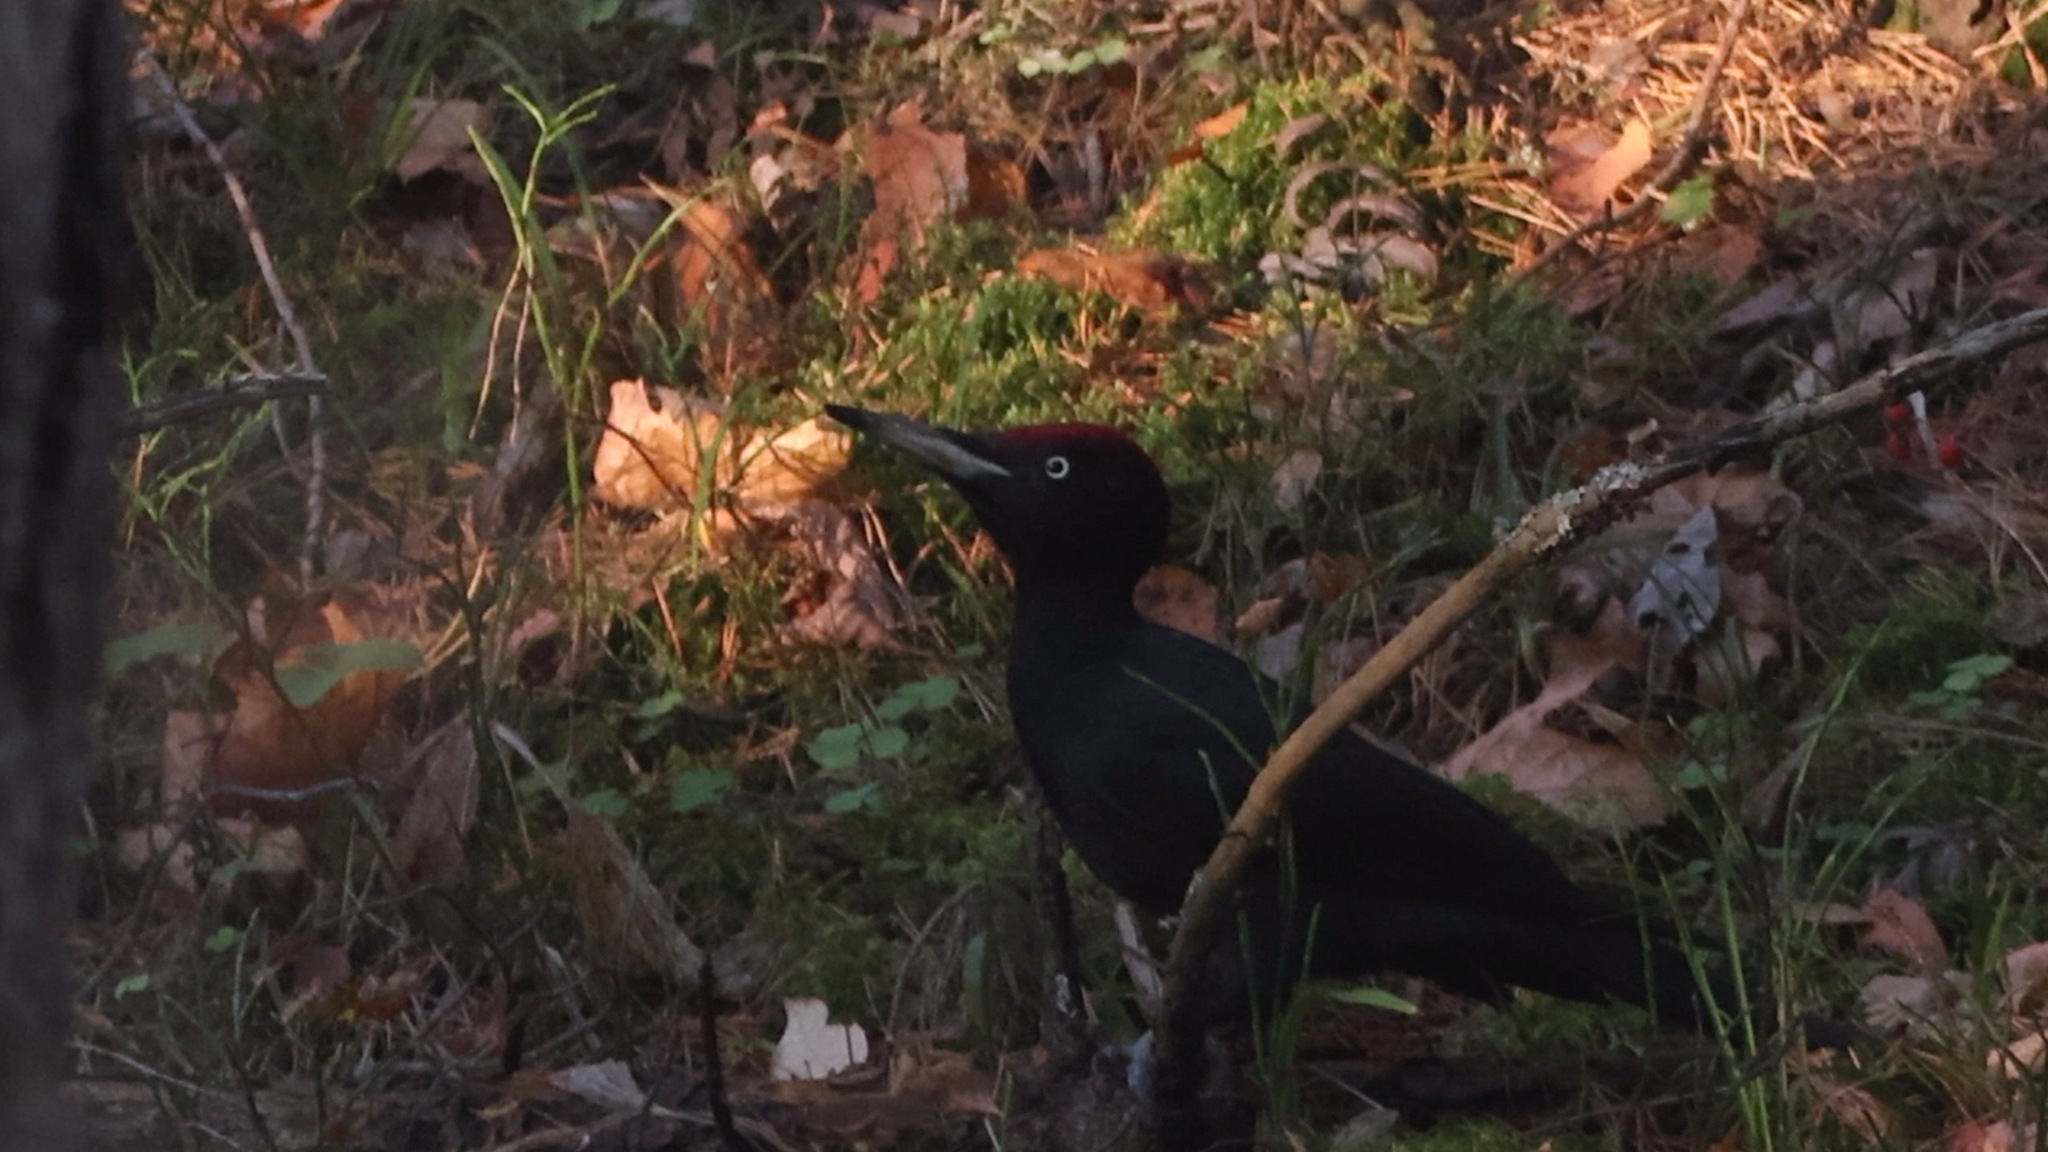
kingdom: Animalia
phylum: Chordata
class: Aves
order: Piciformes
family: Picidae
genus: Dryocopus
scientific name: Dryocopus martius
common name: Black woodpecker
